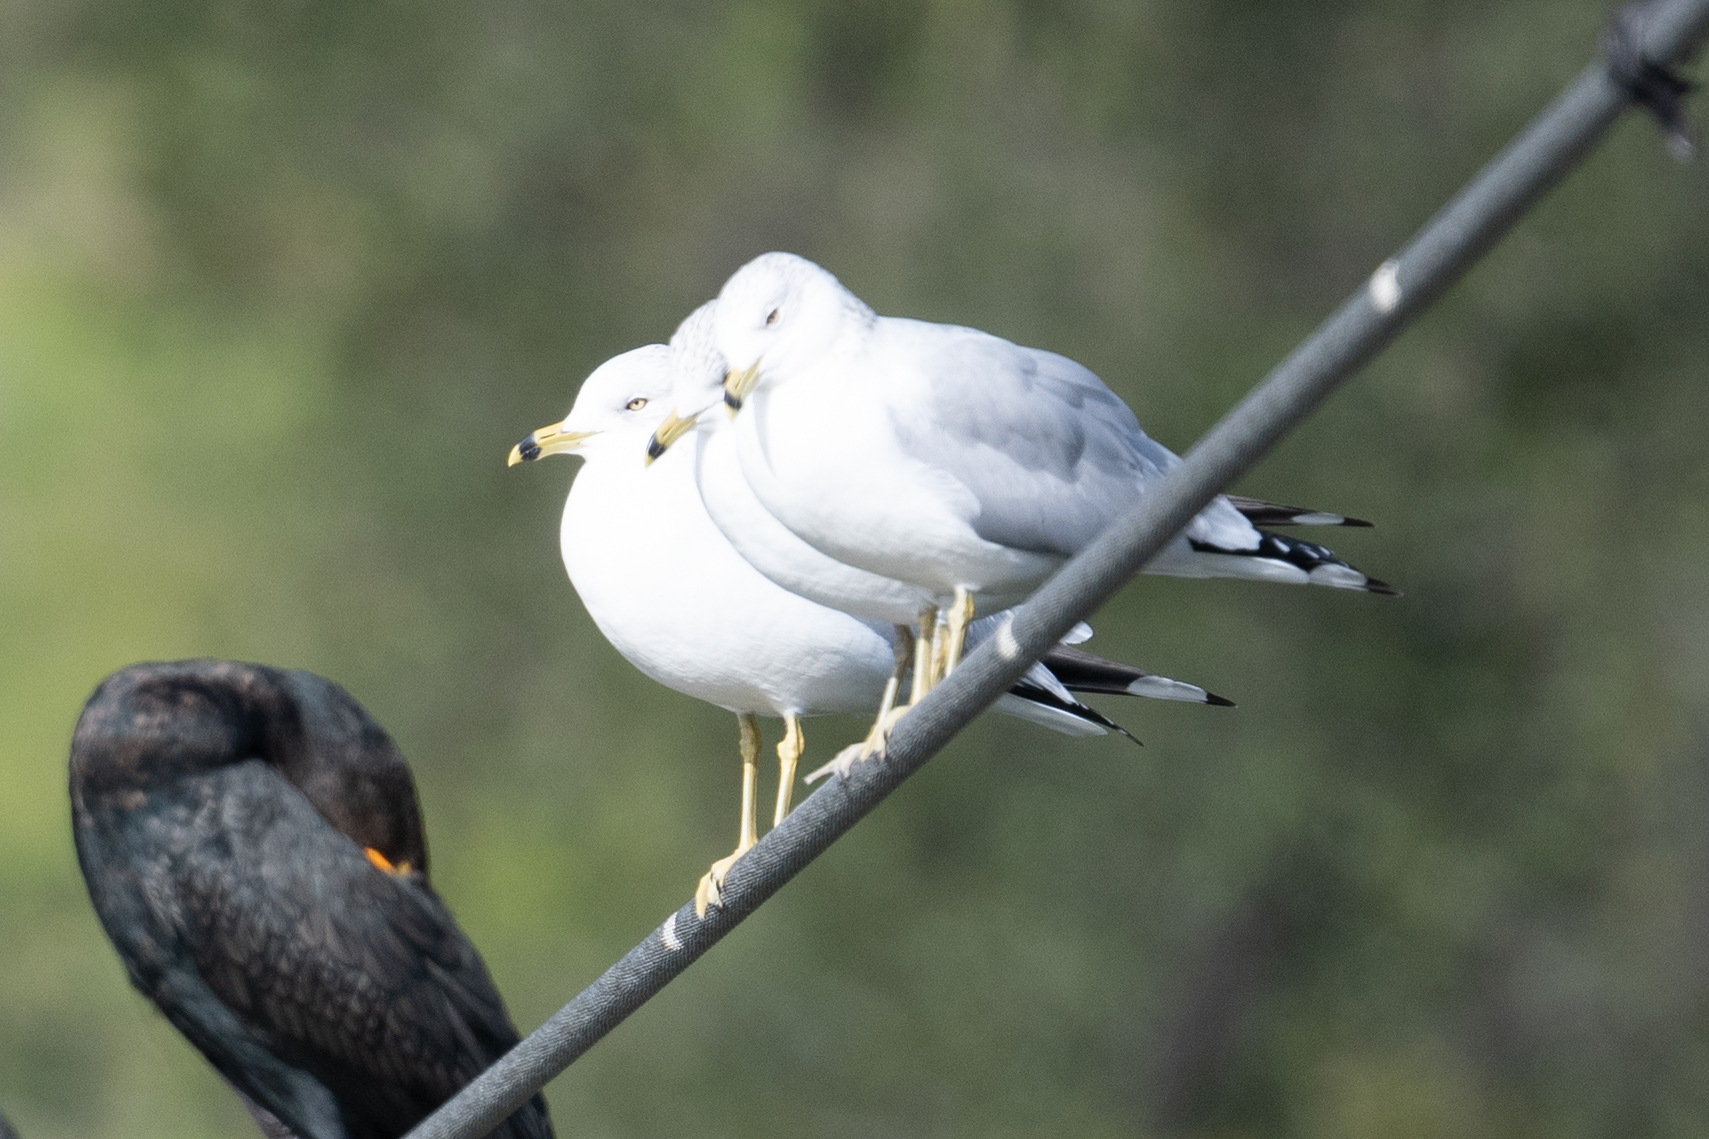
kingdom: Animalia
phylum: Chordata
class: Aves
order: Charadriiformes
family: Laridae
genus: Larus
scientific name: Larus delawarensis
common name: Ring-billed gull
